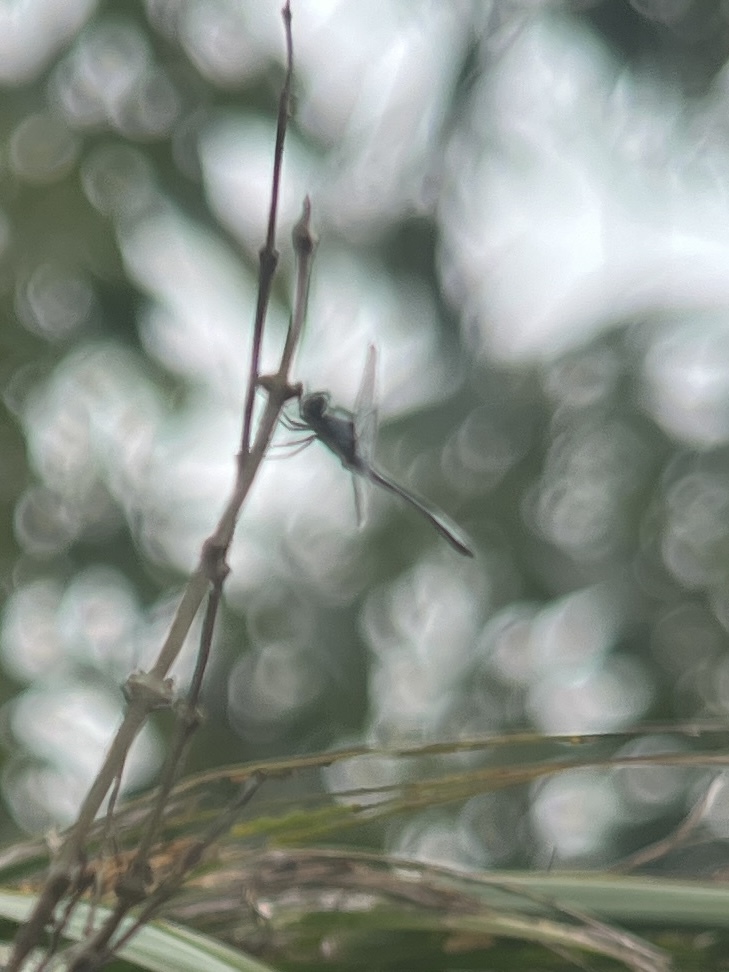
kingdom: Animalia
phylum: Arthropoda
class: Insecta
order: Odonata
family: Libellulidae
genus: Scapanea
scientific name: Scapanea frontalis
